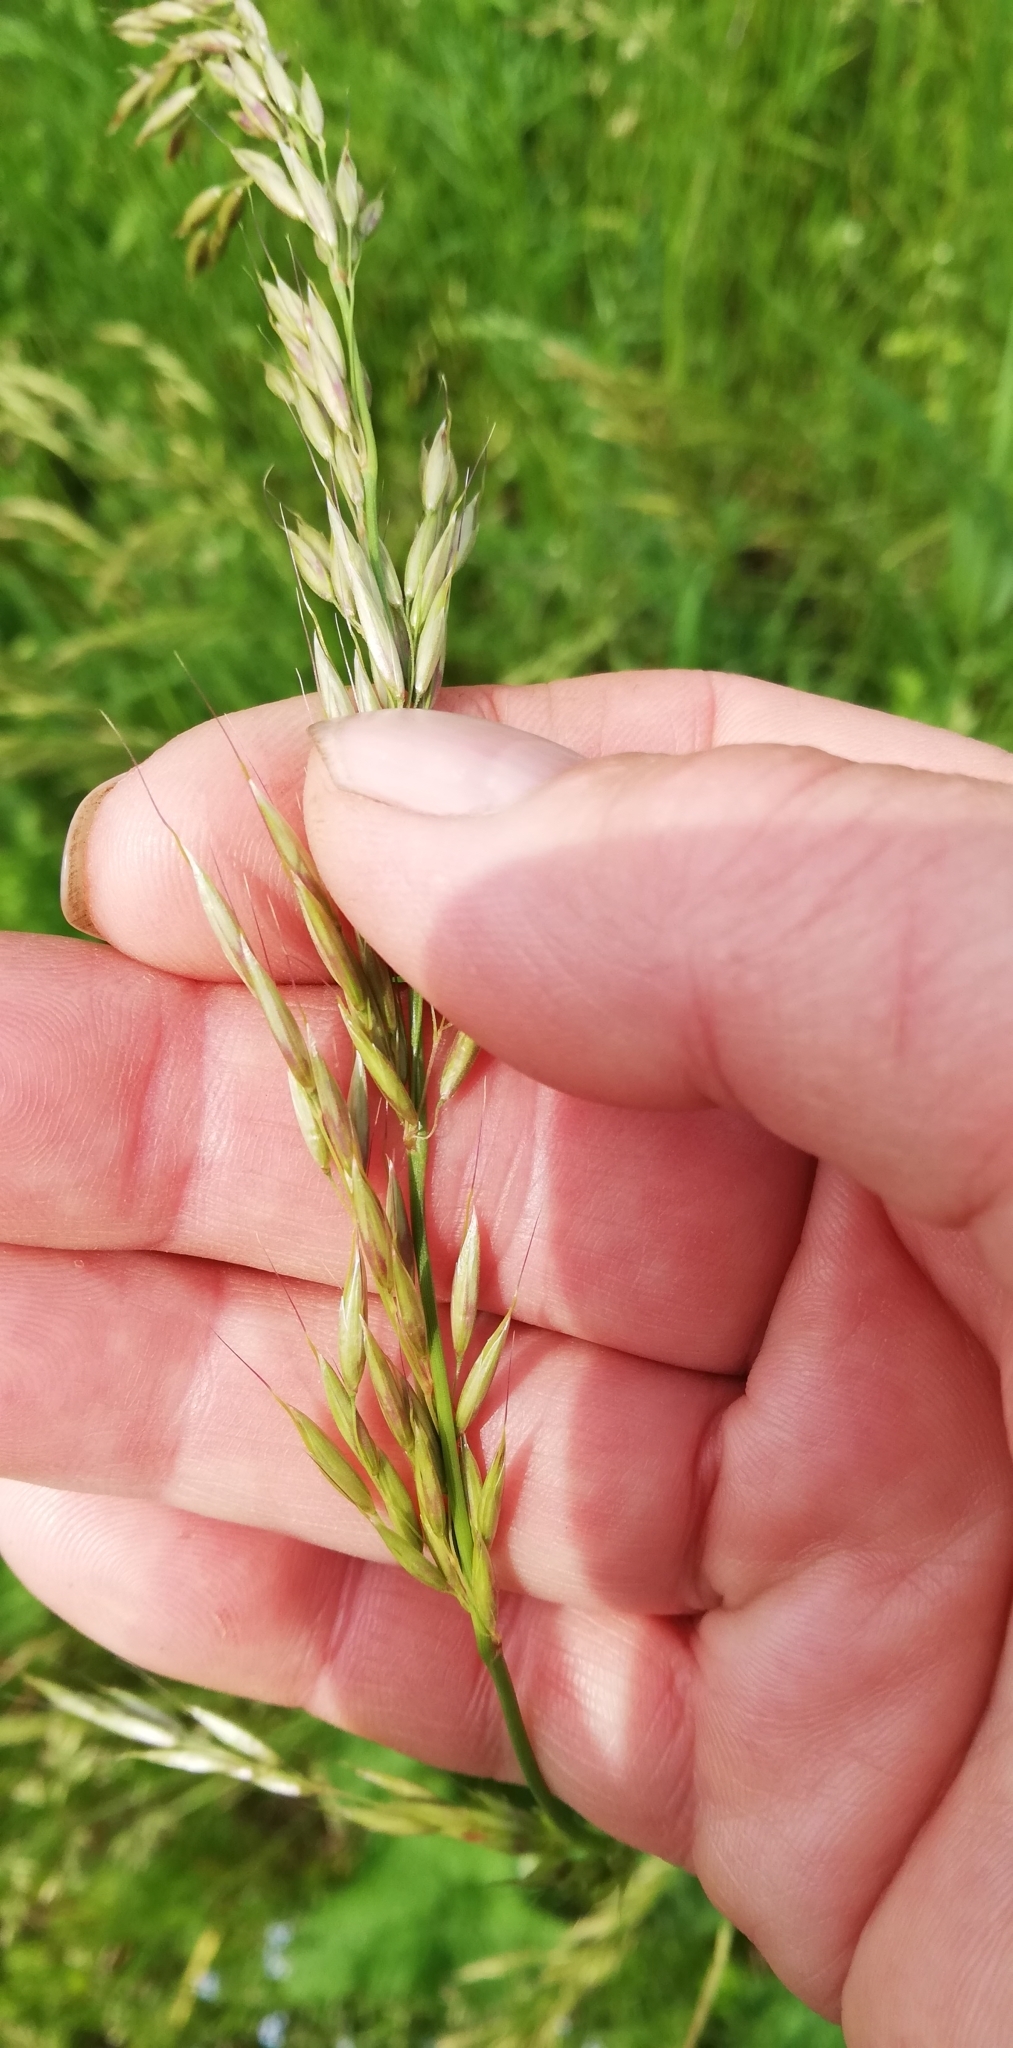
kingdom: Plantae
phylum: Tracheophyta
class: Liliopsida
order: Poales
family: Poaceae
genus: Arrhenatherum
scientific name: Arrhenatherum elatius
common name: Tall oatgrass
